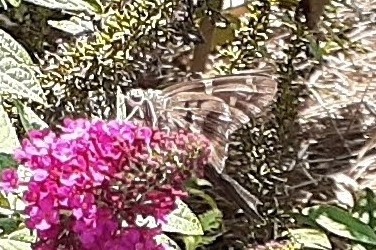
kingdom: Animalia
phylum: Arthropoda
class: Insecta
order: Lepidoptera
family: Hesperiidae
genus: Urbanus
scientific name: Urbanus proteus
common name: Long-tailed skipper
